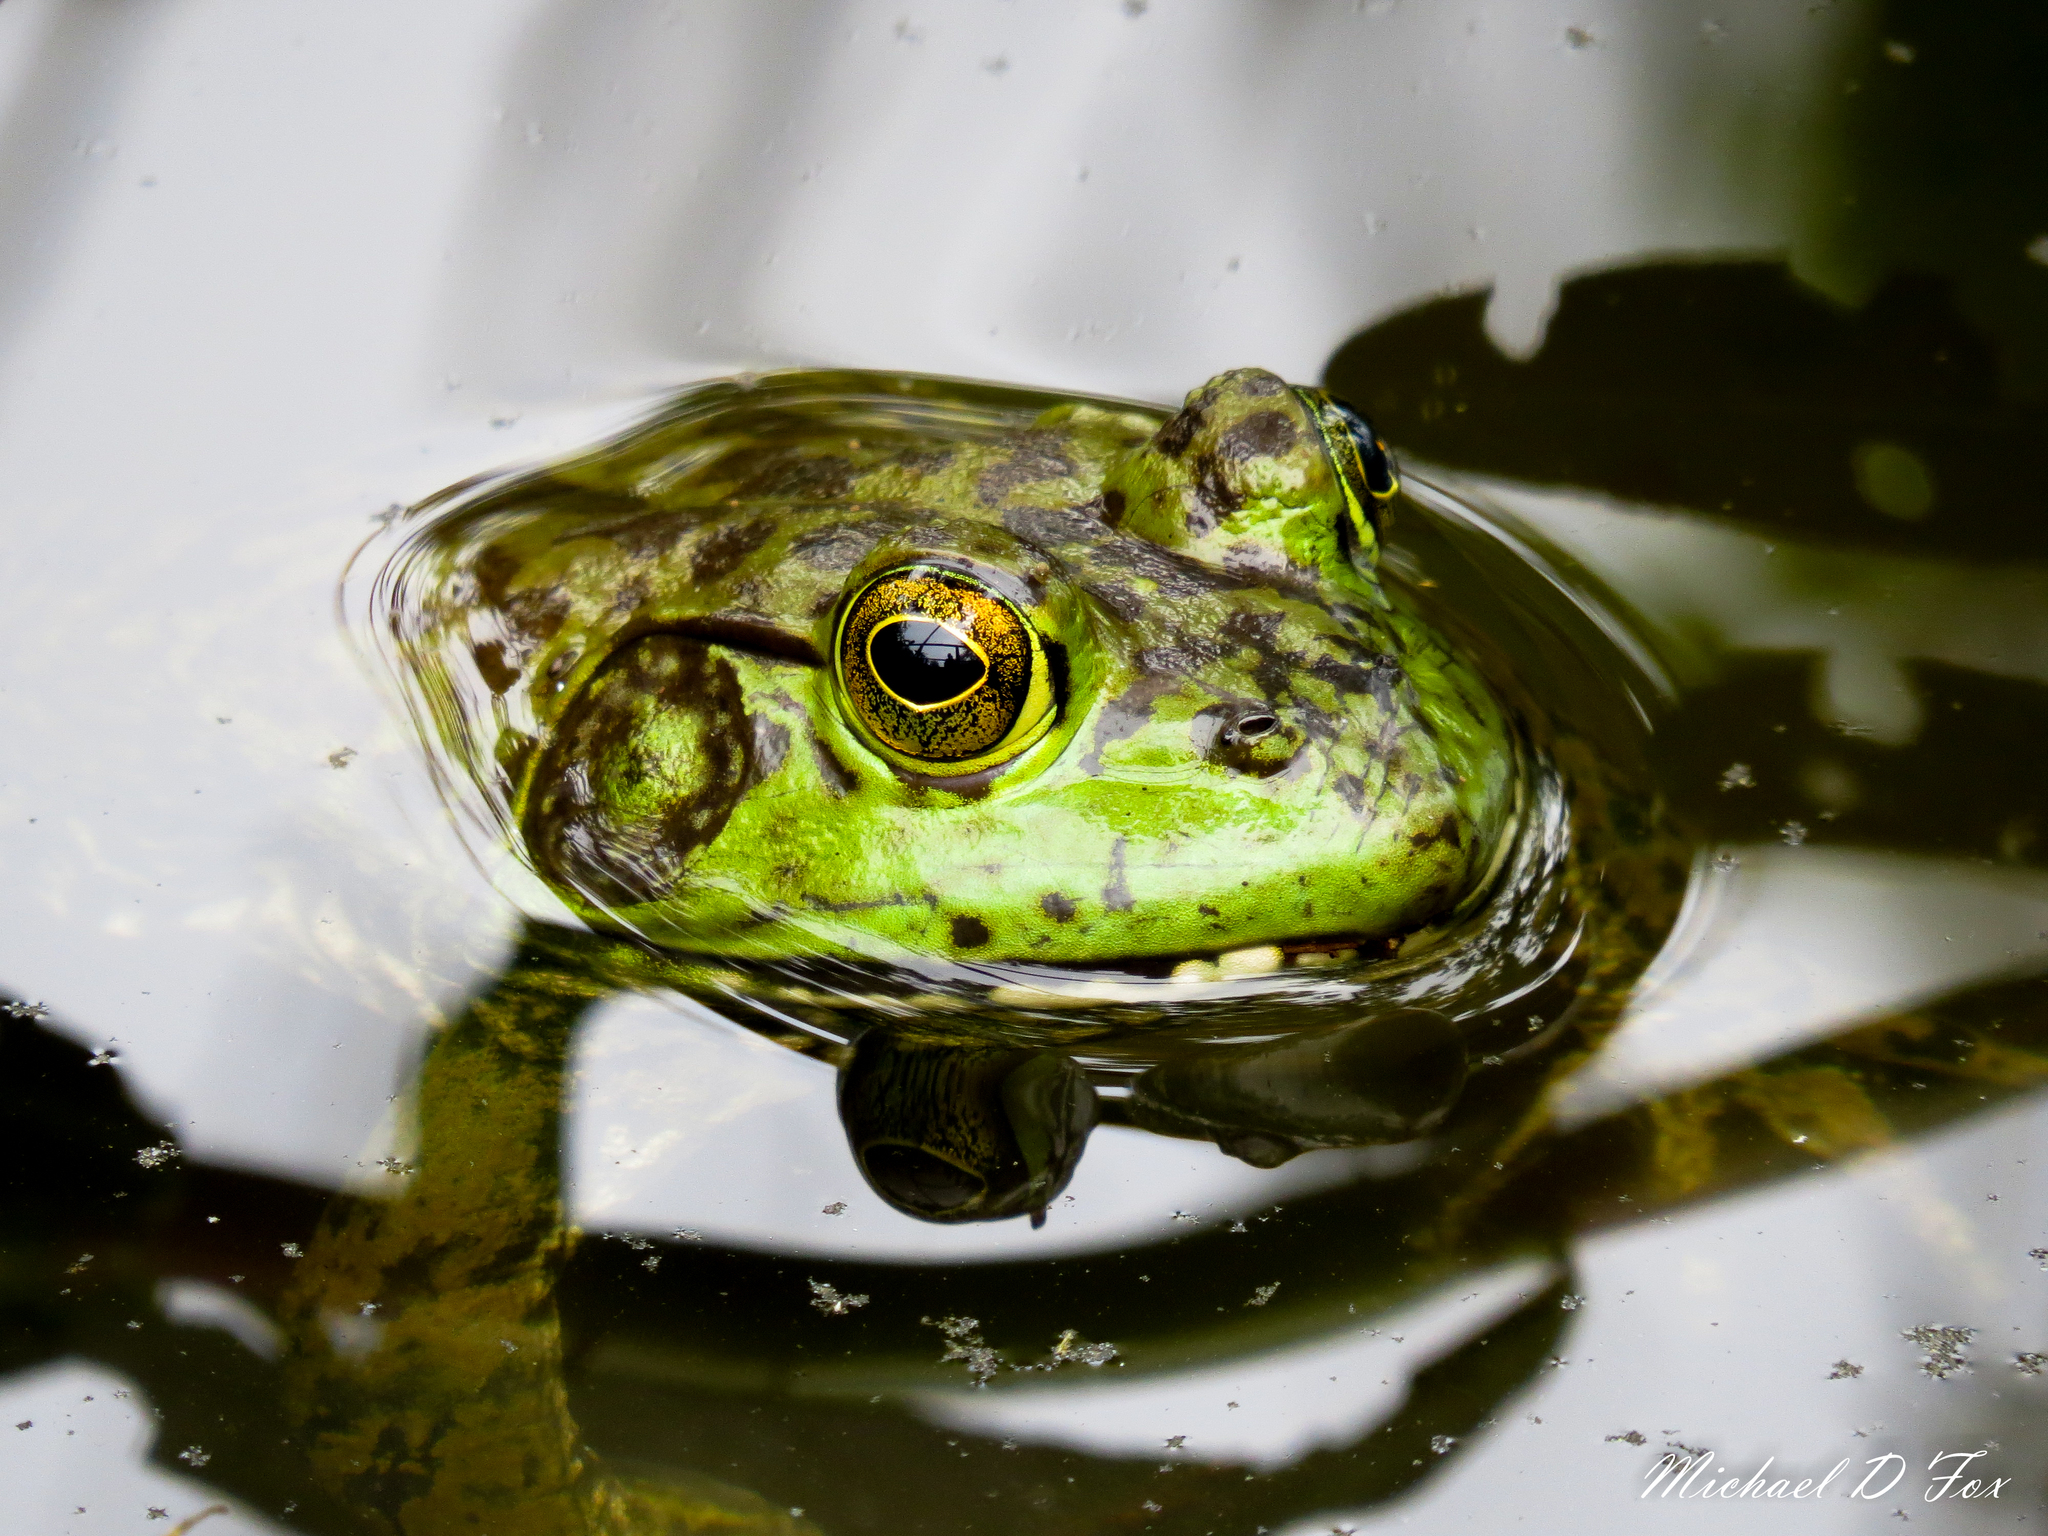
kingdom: Animalia
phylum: Chordata
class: Amphibia
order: Anura
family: Ranidae
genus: Lithobates
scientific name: Lithobates catesbeianus
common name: American bullfrog
